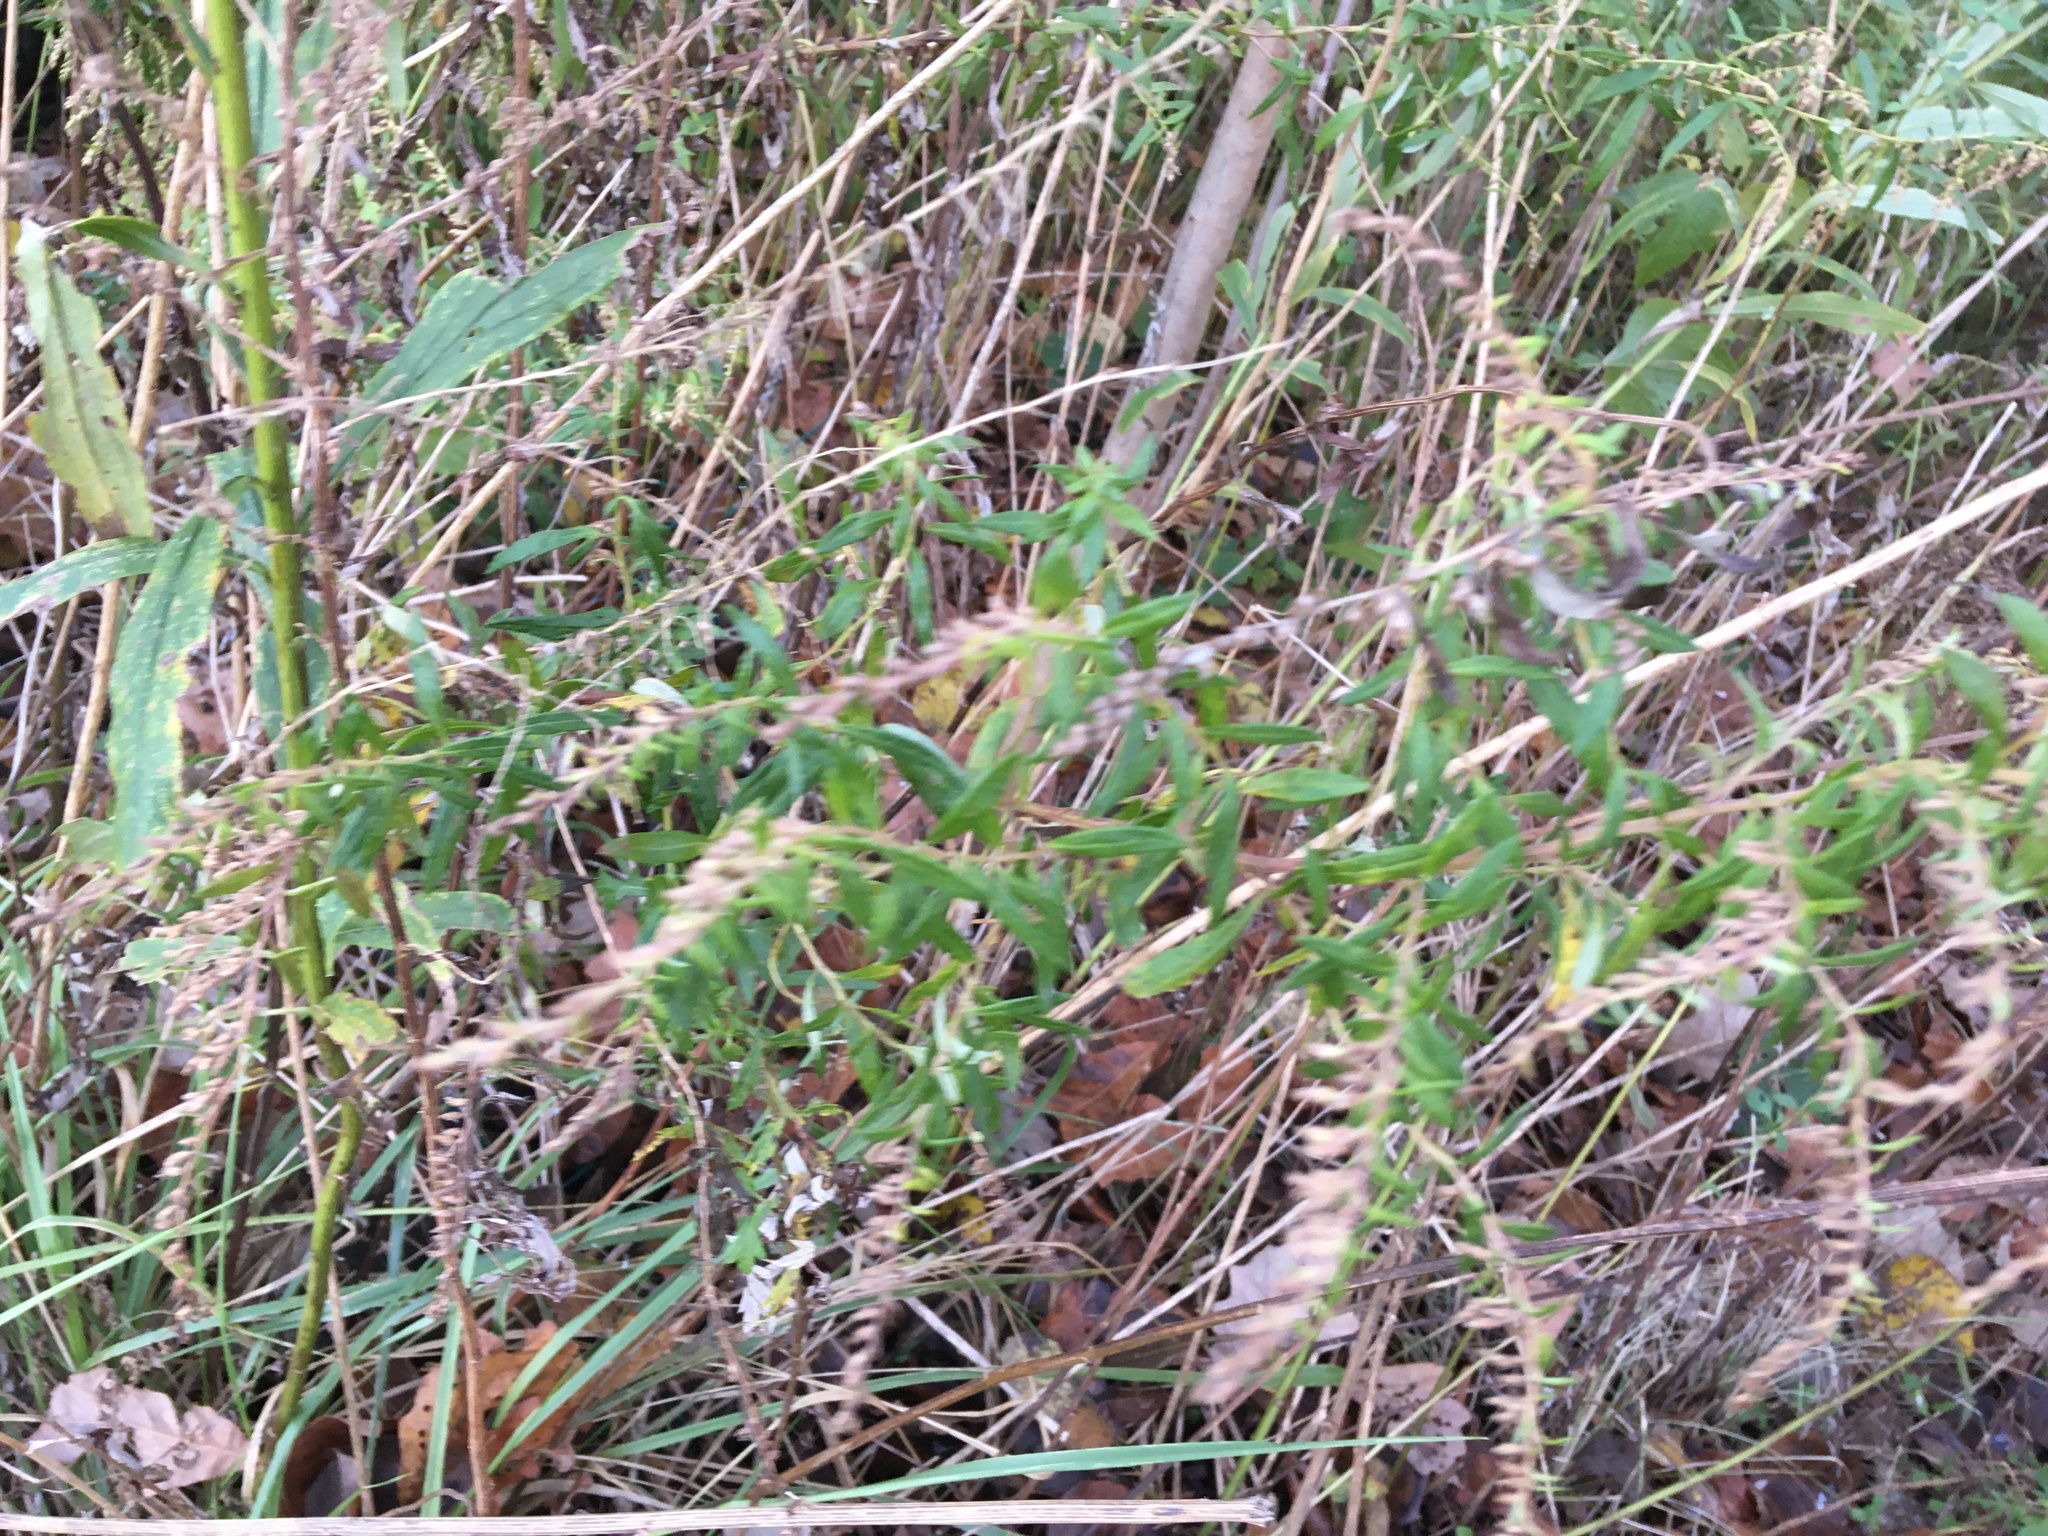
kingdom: Plantae
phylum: Tracheophyta
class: Magnoliopsida
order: Asterales
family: Asteraceae
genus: Artemisia
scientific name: Artemisia vulgaris
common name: Mugwort
